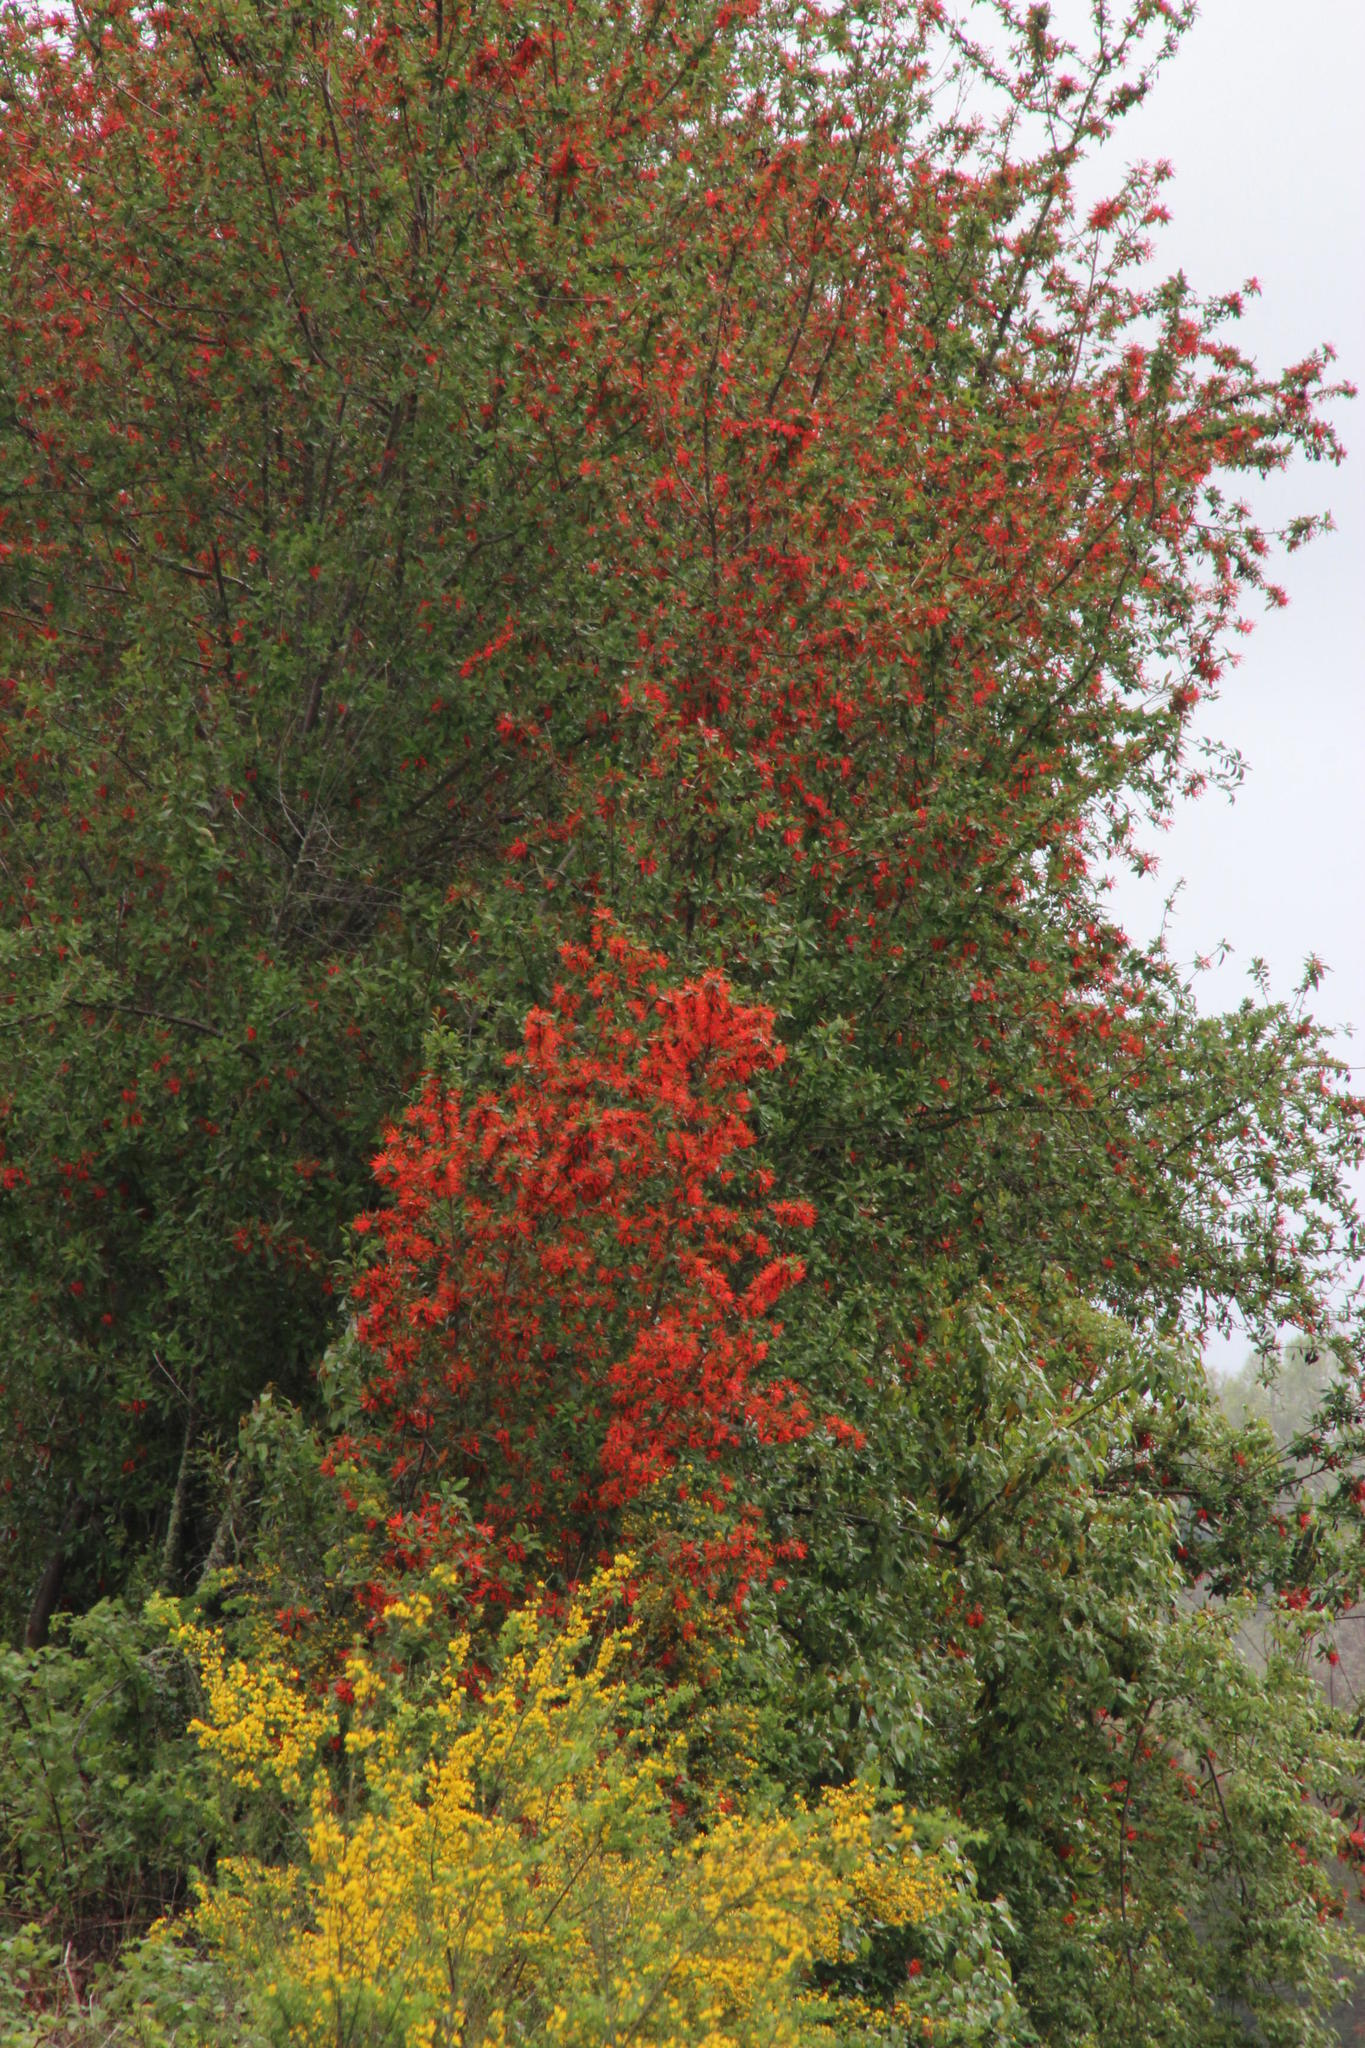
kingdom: Plantae
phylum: Tracheophyta
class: Magnoliopsida
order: Proteales
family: Proteaceae
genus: Embothrium
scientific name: Embothrium coccineum
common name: Chilean firebush
